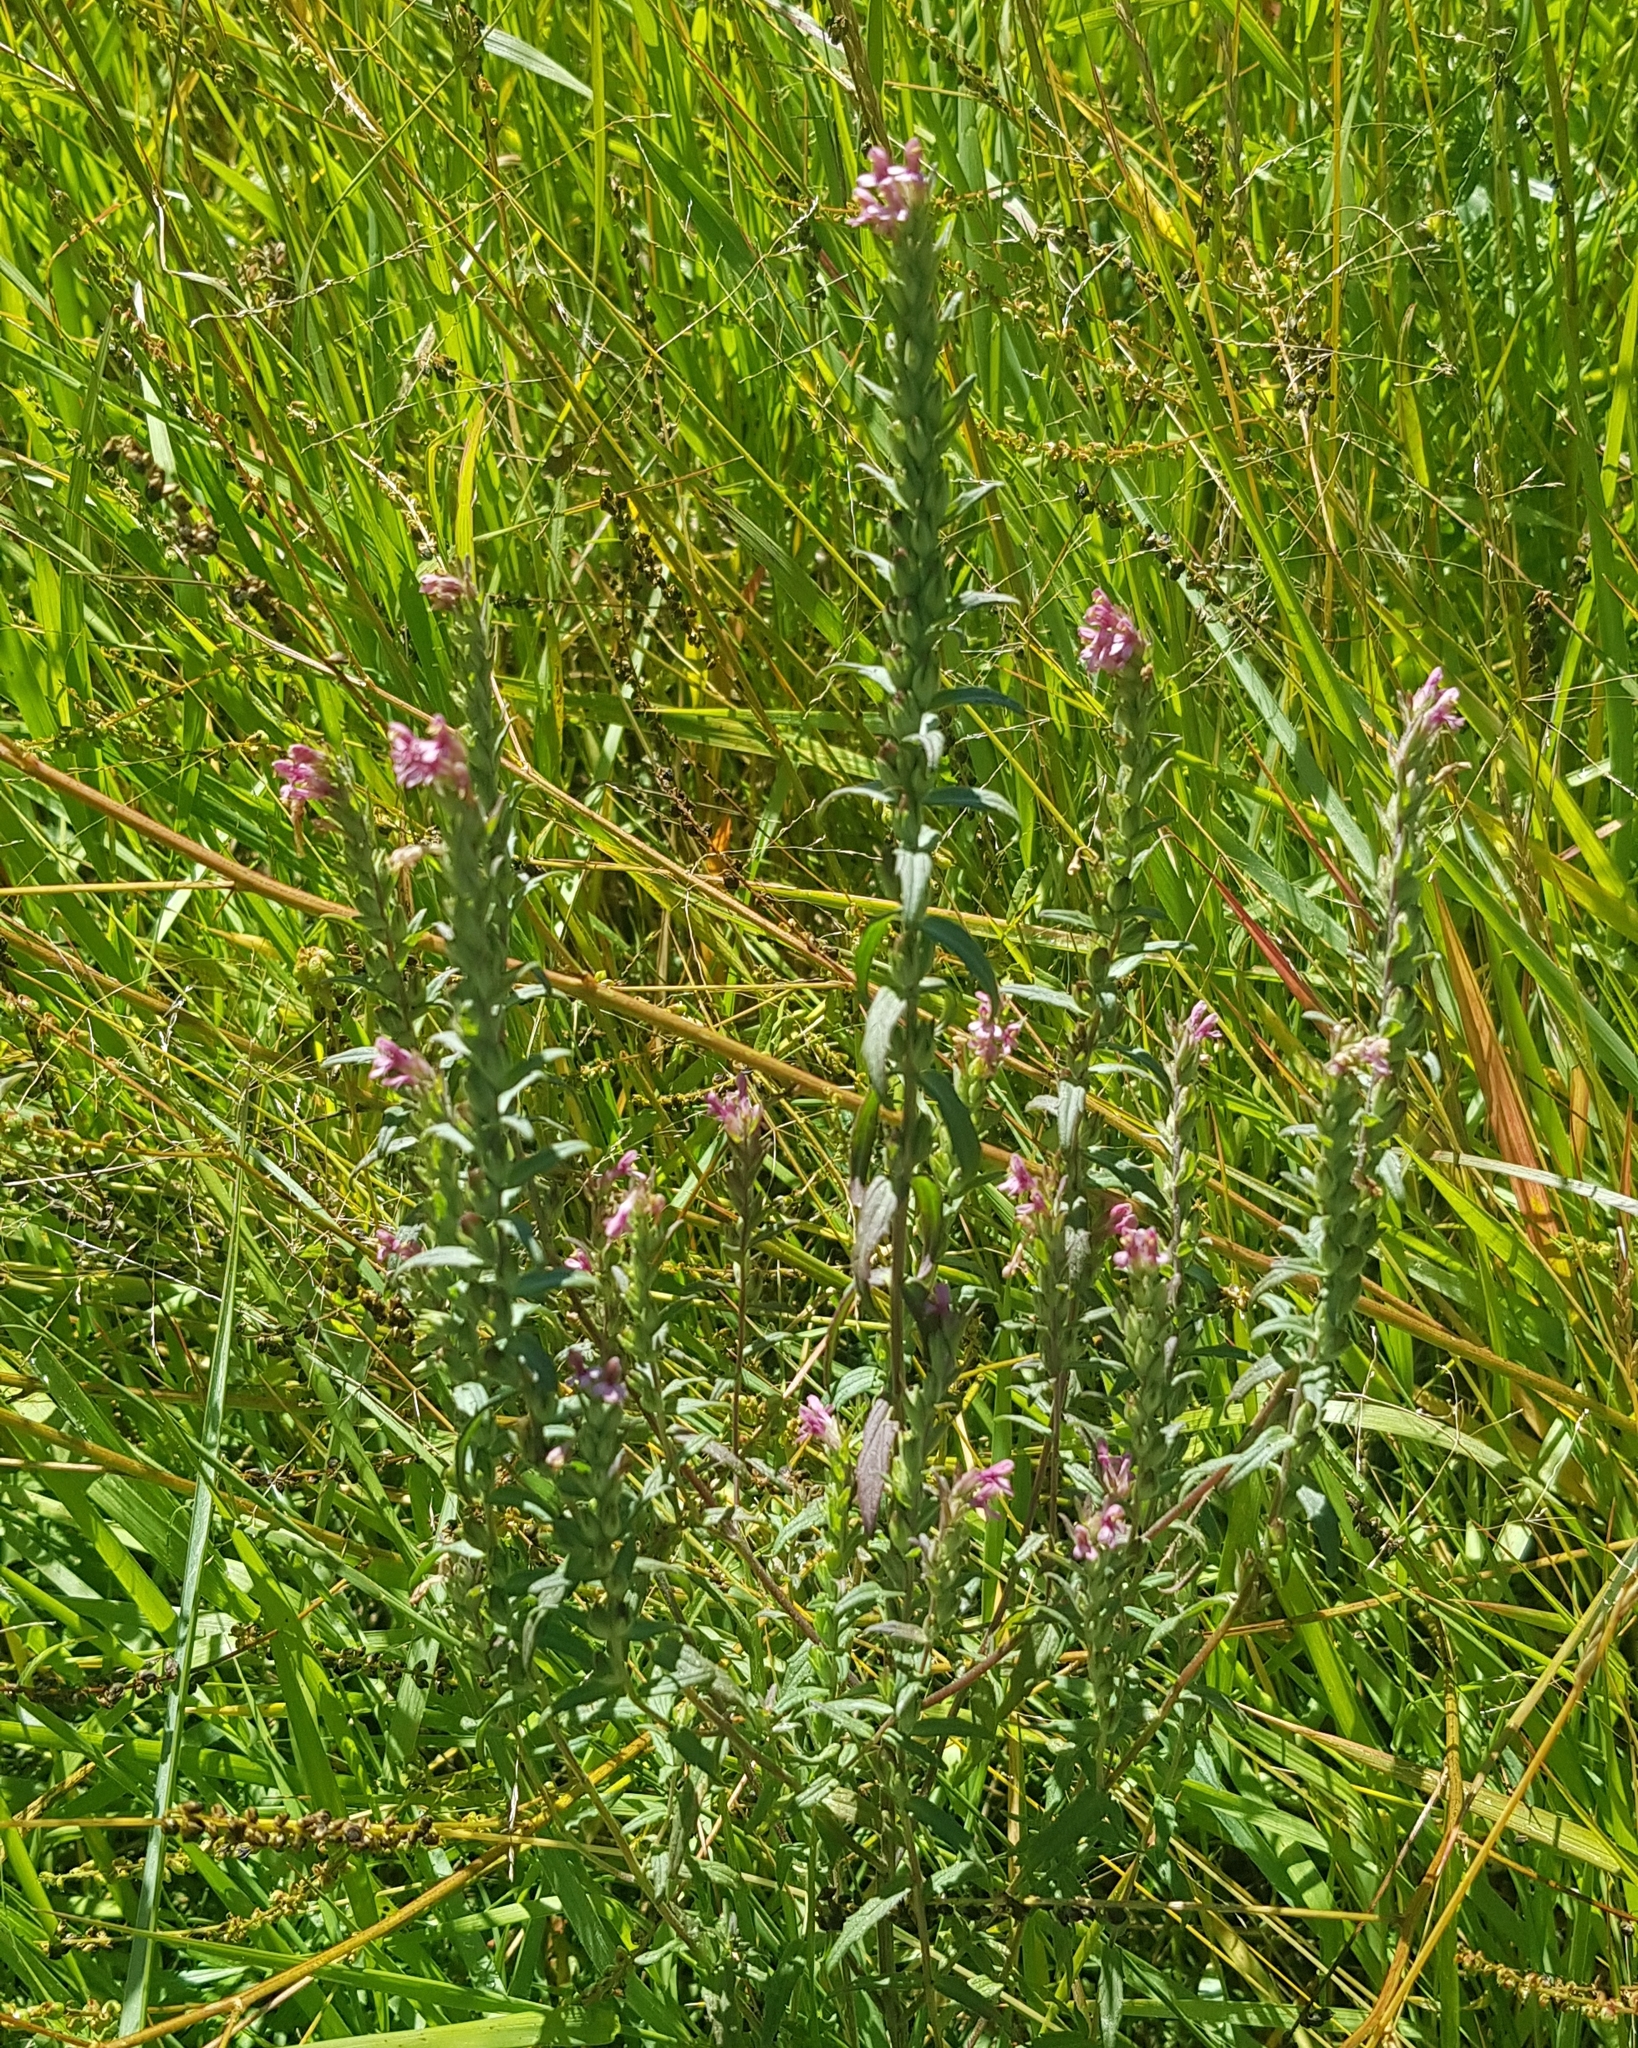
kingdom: Plantae
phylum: Tracheophyta
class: Magnoliopsida
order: Lamiales
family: Orobanchaceae
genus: Odontites
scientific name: Odontites vulgaris
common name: Broomrape
